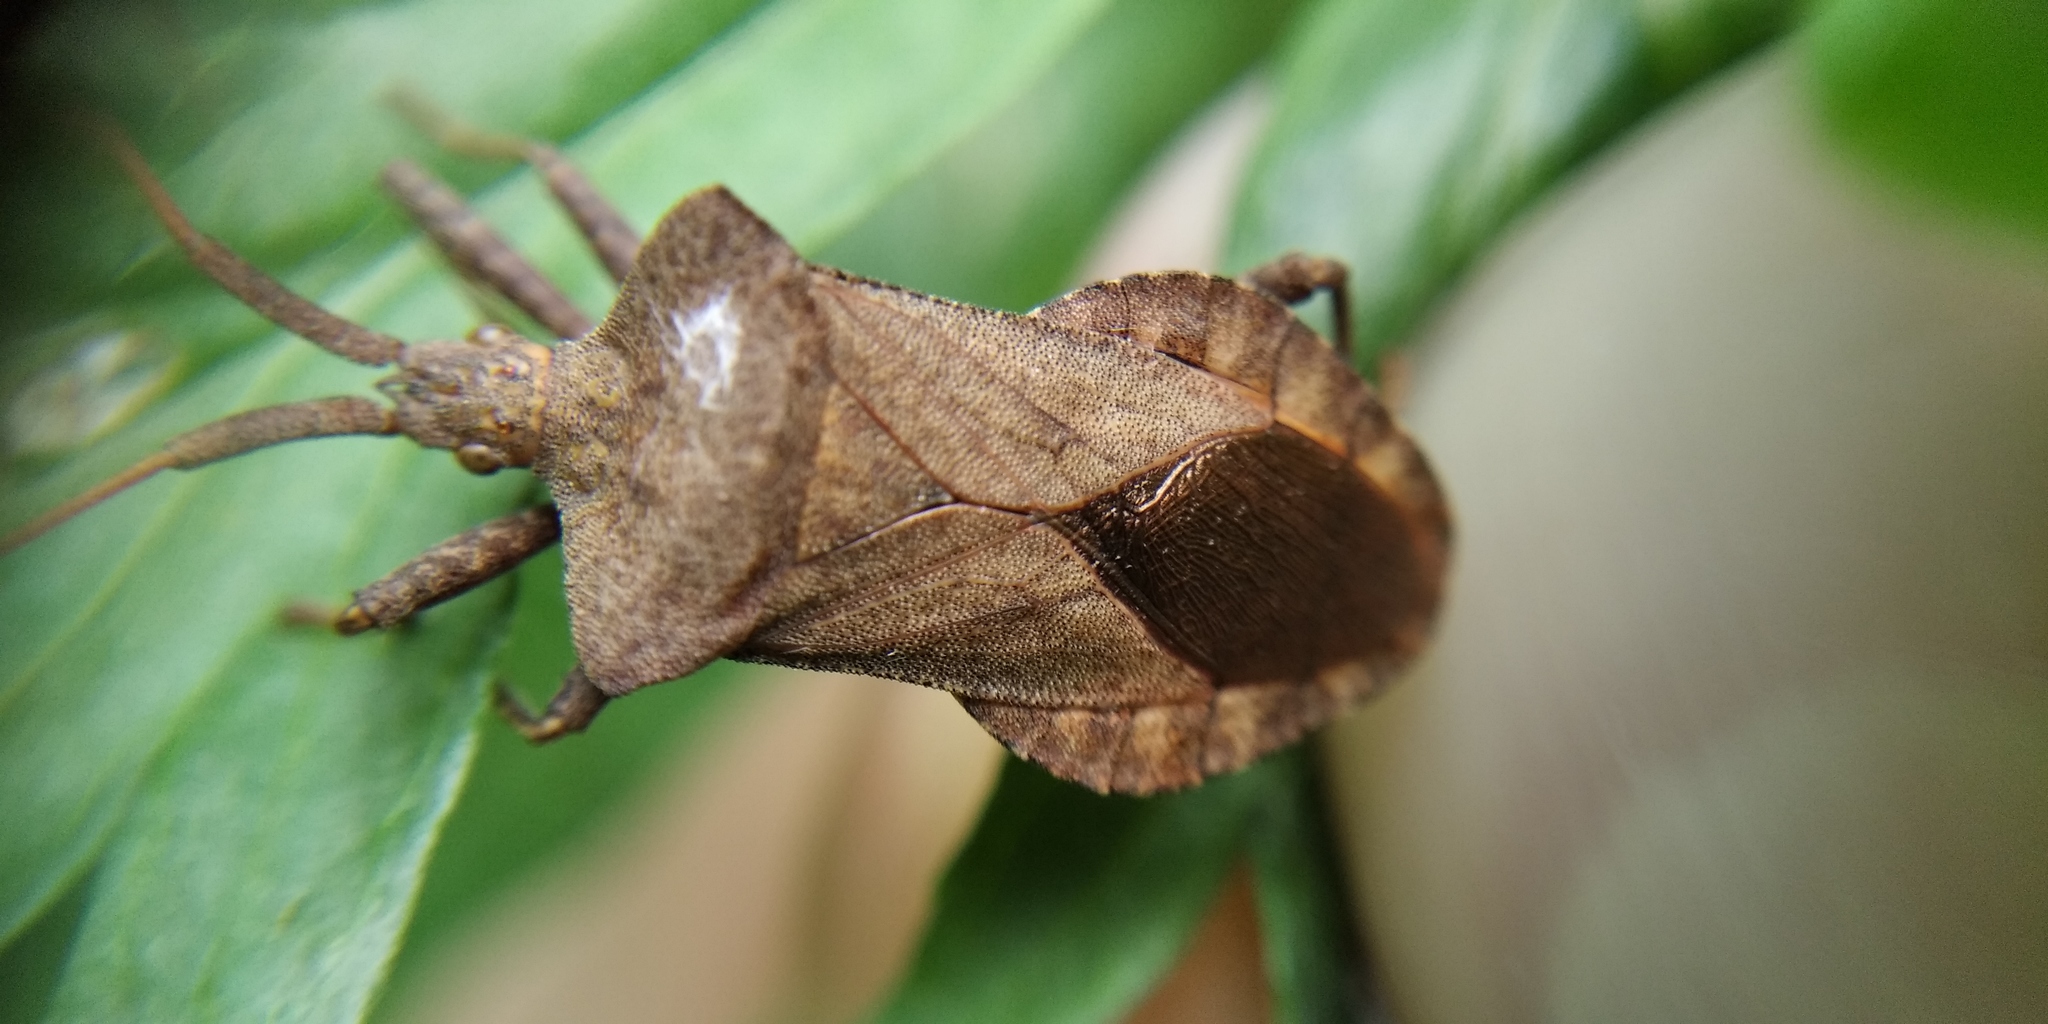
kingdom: Animalia
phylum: Arthropoda
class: Insecta
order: Hemiptera
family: Coreidae
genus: Coreus
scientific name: Coreus marginatus
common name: Dock bug
